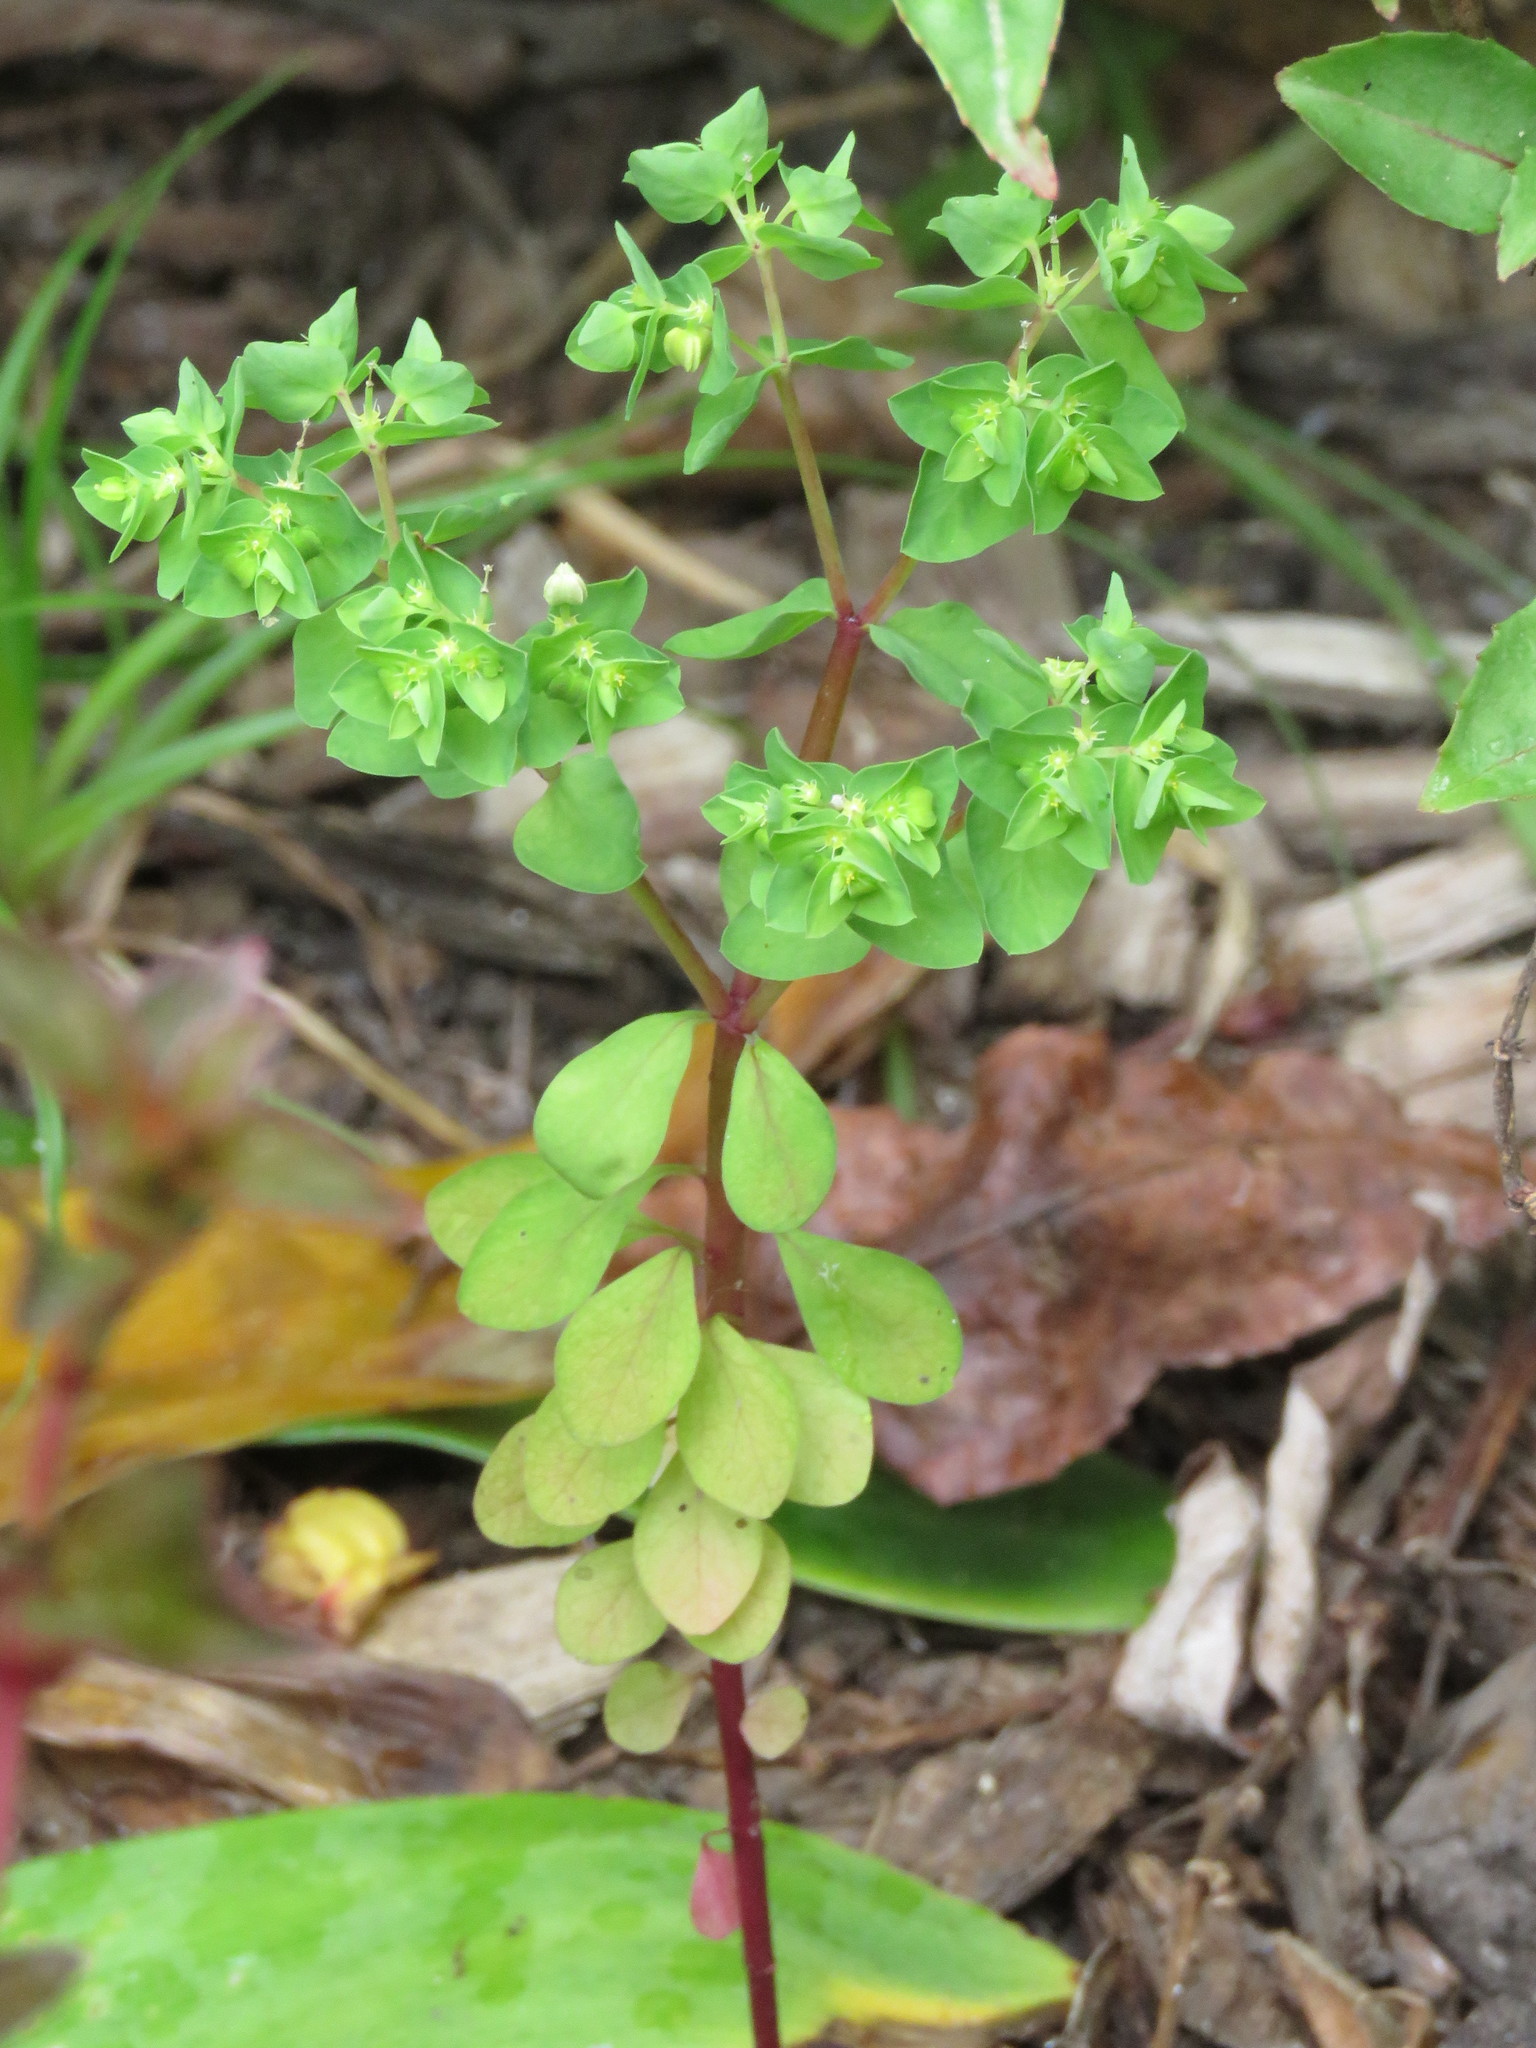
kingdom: Plantae
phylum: Tracheophyta
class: Magnoliopsida
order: Malpighiales
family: Euphorbiaceae
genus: Euphorbia
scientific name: Euphorbia peplus
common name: Petty spurge
